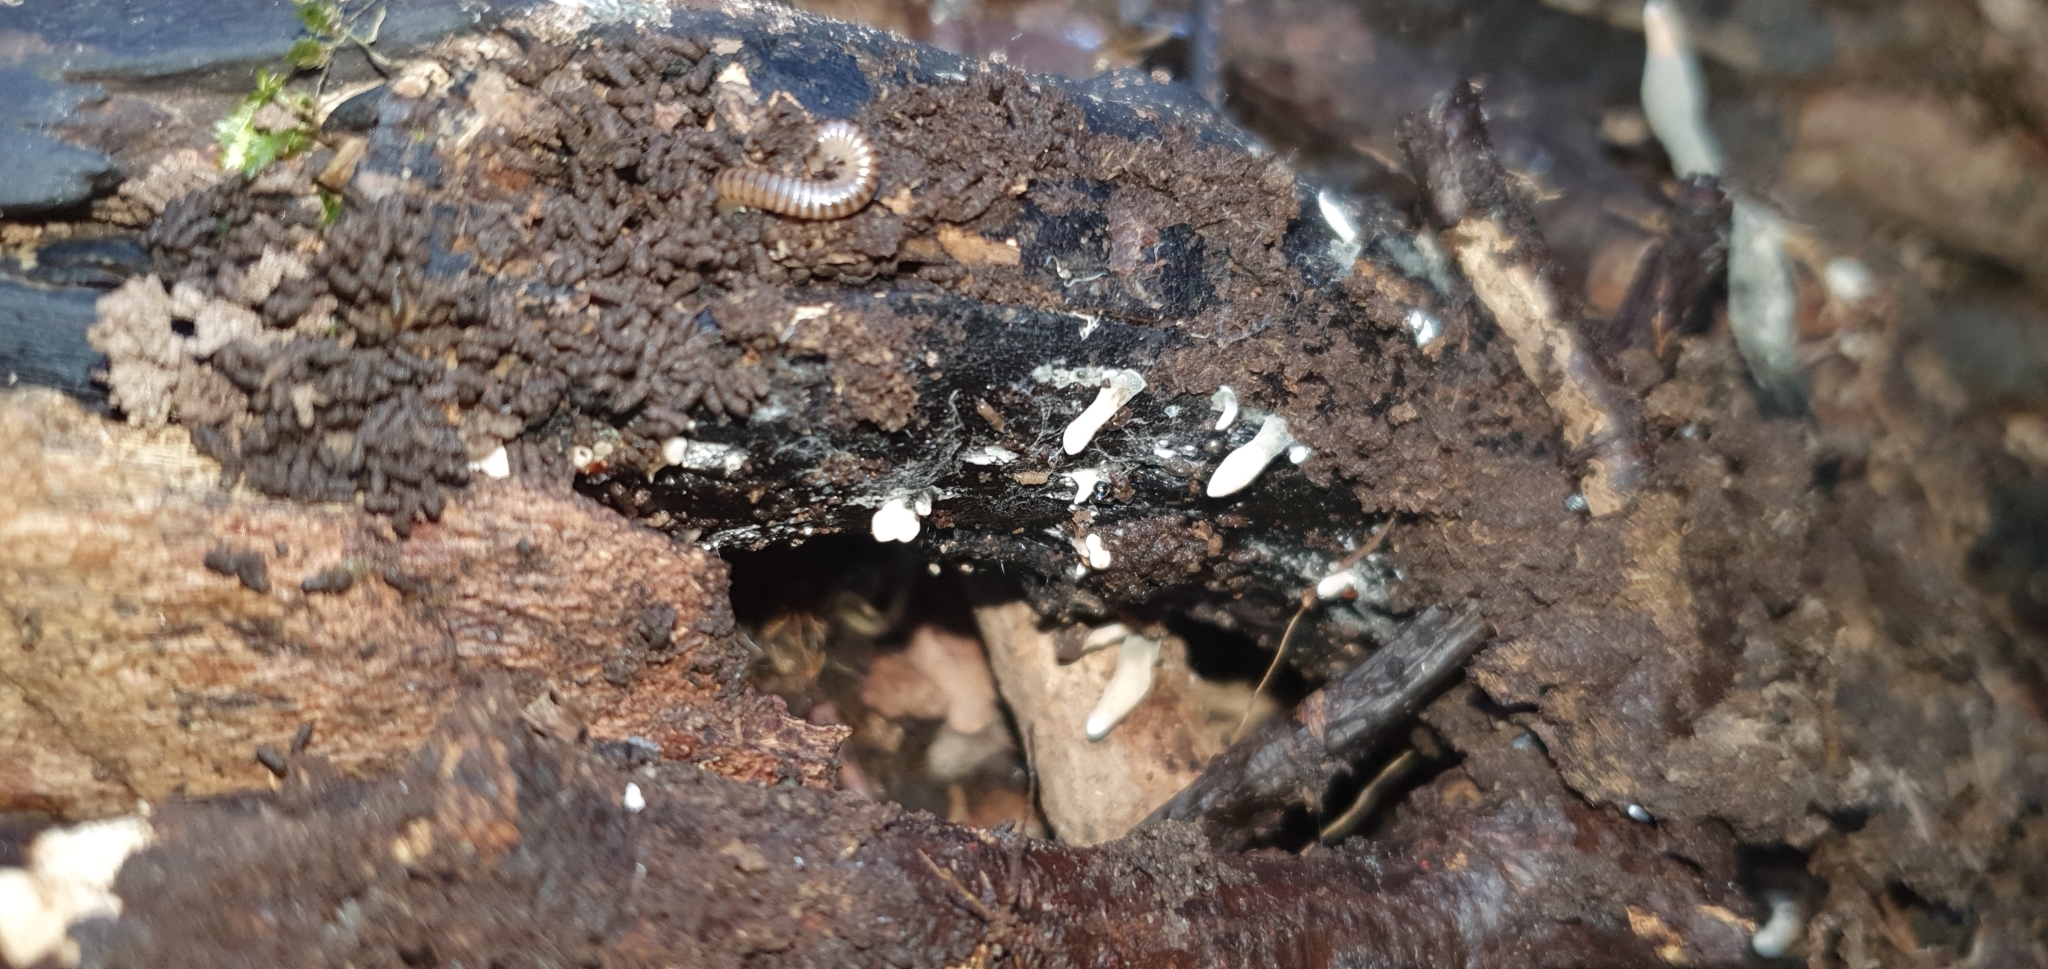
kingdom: Fungi
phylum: Ascomycota
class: Sordariomycetes
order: Xylariales
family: Xylariaceae
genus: Xylaria
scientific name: Xylaria hypoxylon
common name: Candle-snuff fungus
